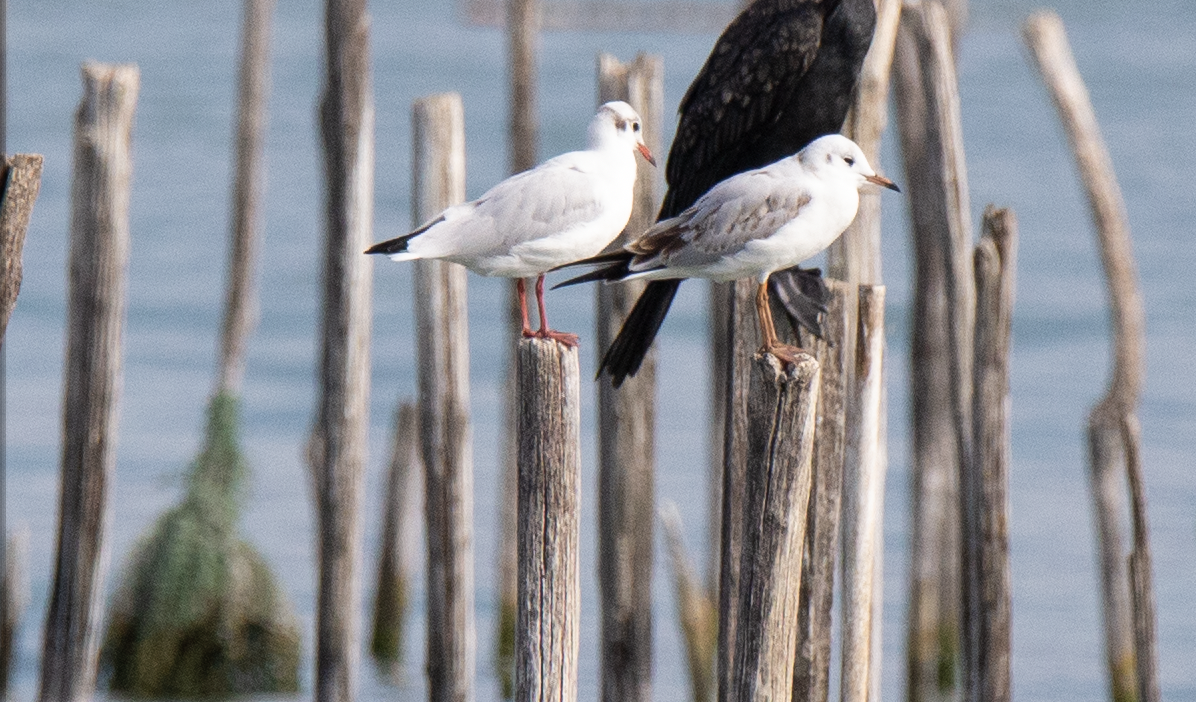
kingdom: Animalia
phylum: Chordata
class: Aves
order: Charadriiformes
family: Laridae
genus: Chroicocephalus
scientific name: Chroicocephalus ridibundus
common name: Black-headed gull
